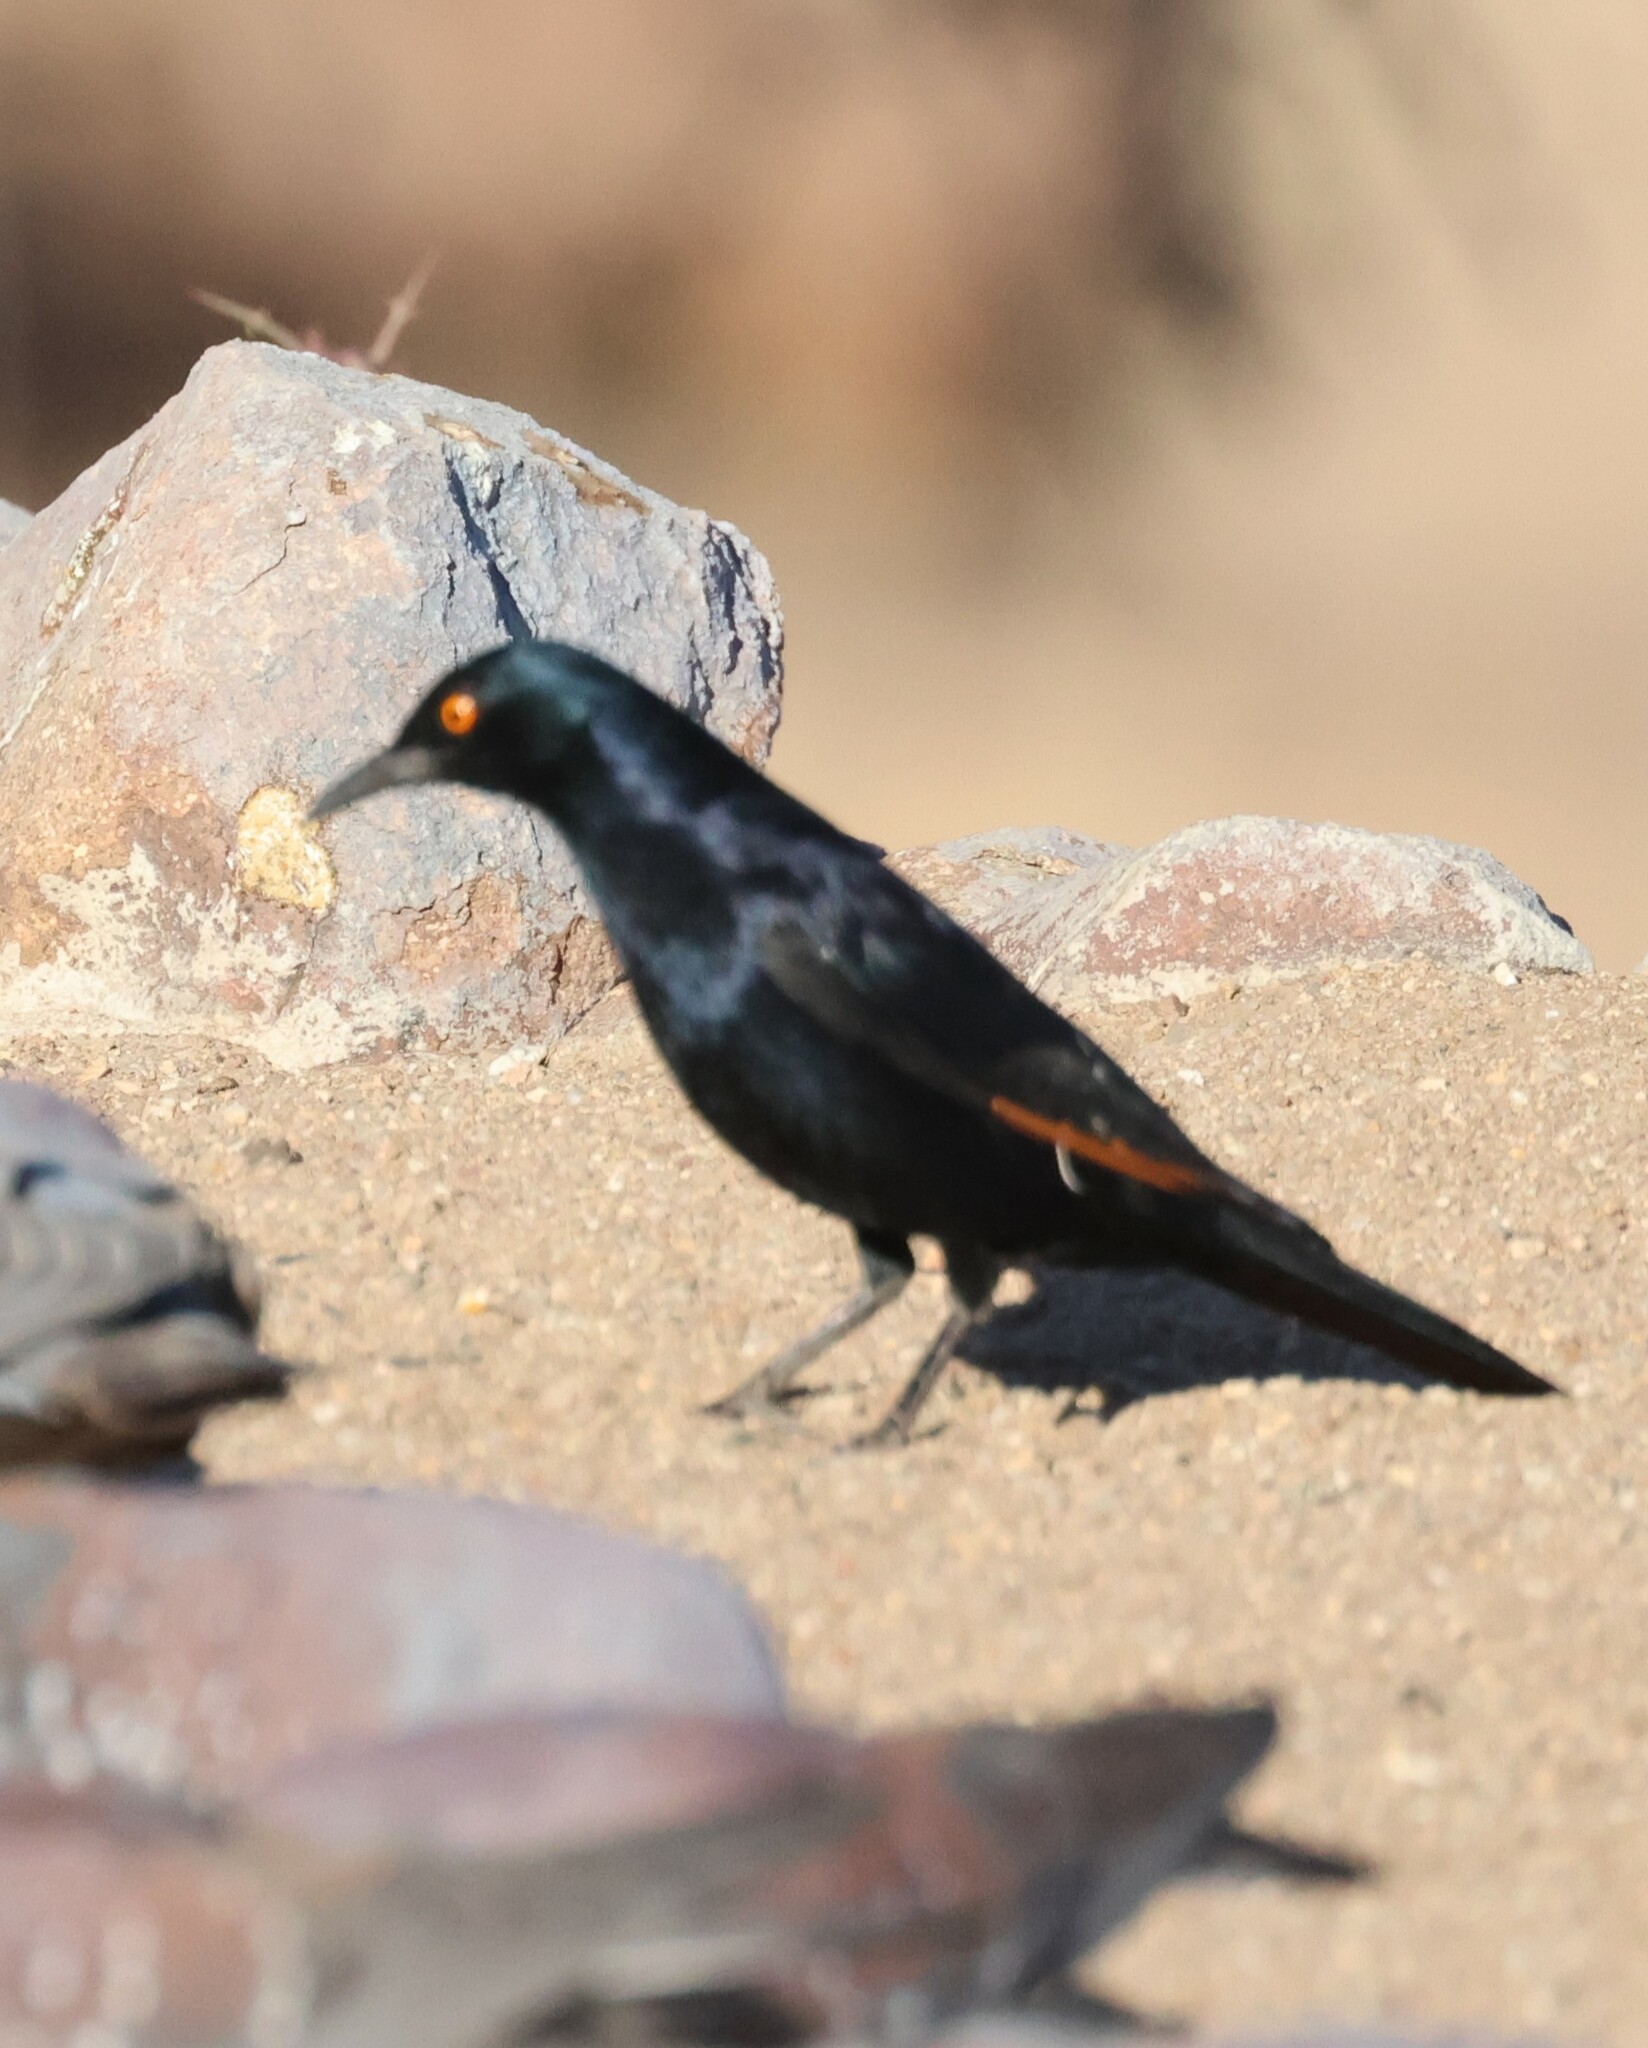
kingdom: Animalia
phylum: Chordata
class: Aves
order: Passeriformes
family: Sturnidae
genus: Onychognathus
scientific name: Onychognathus nabouroup
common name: Pale-winged starling
